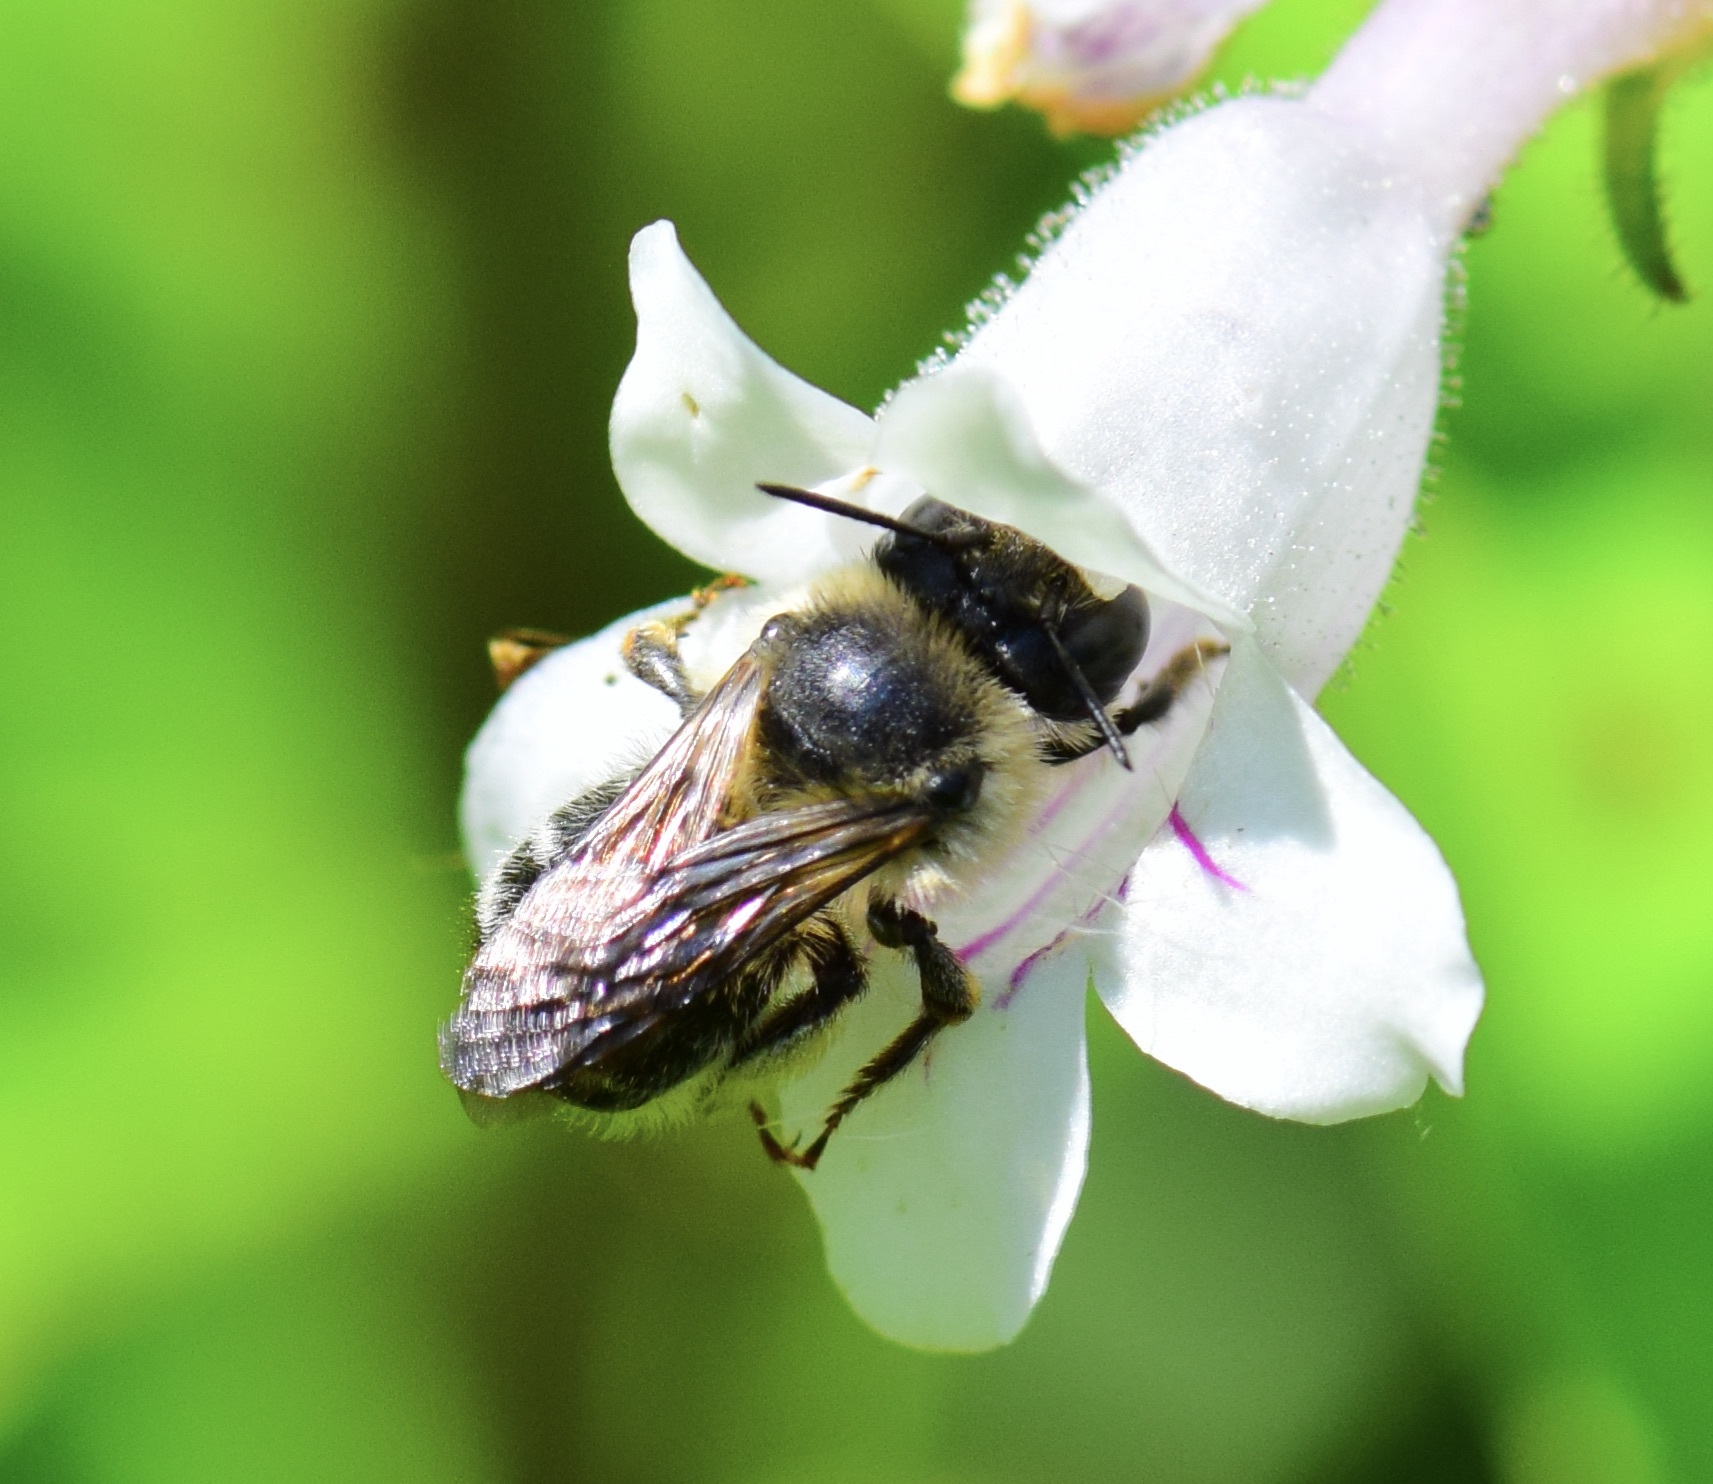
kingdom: Animalia
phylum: Arthropoda
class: Insecta
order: Hymenoptera
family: Apidae
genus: Anthophora
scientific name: Anthophora terminalis
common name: Orange-tipped wood-digger bee
